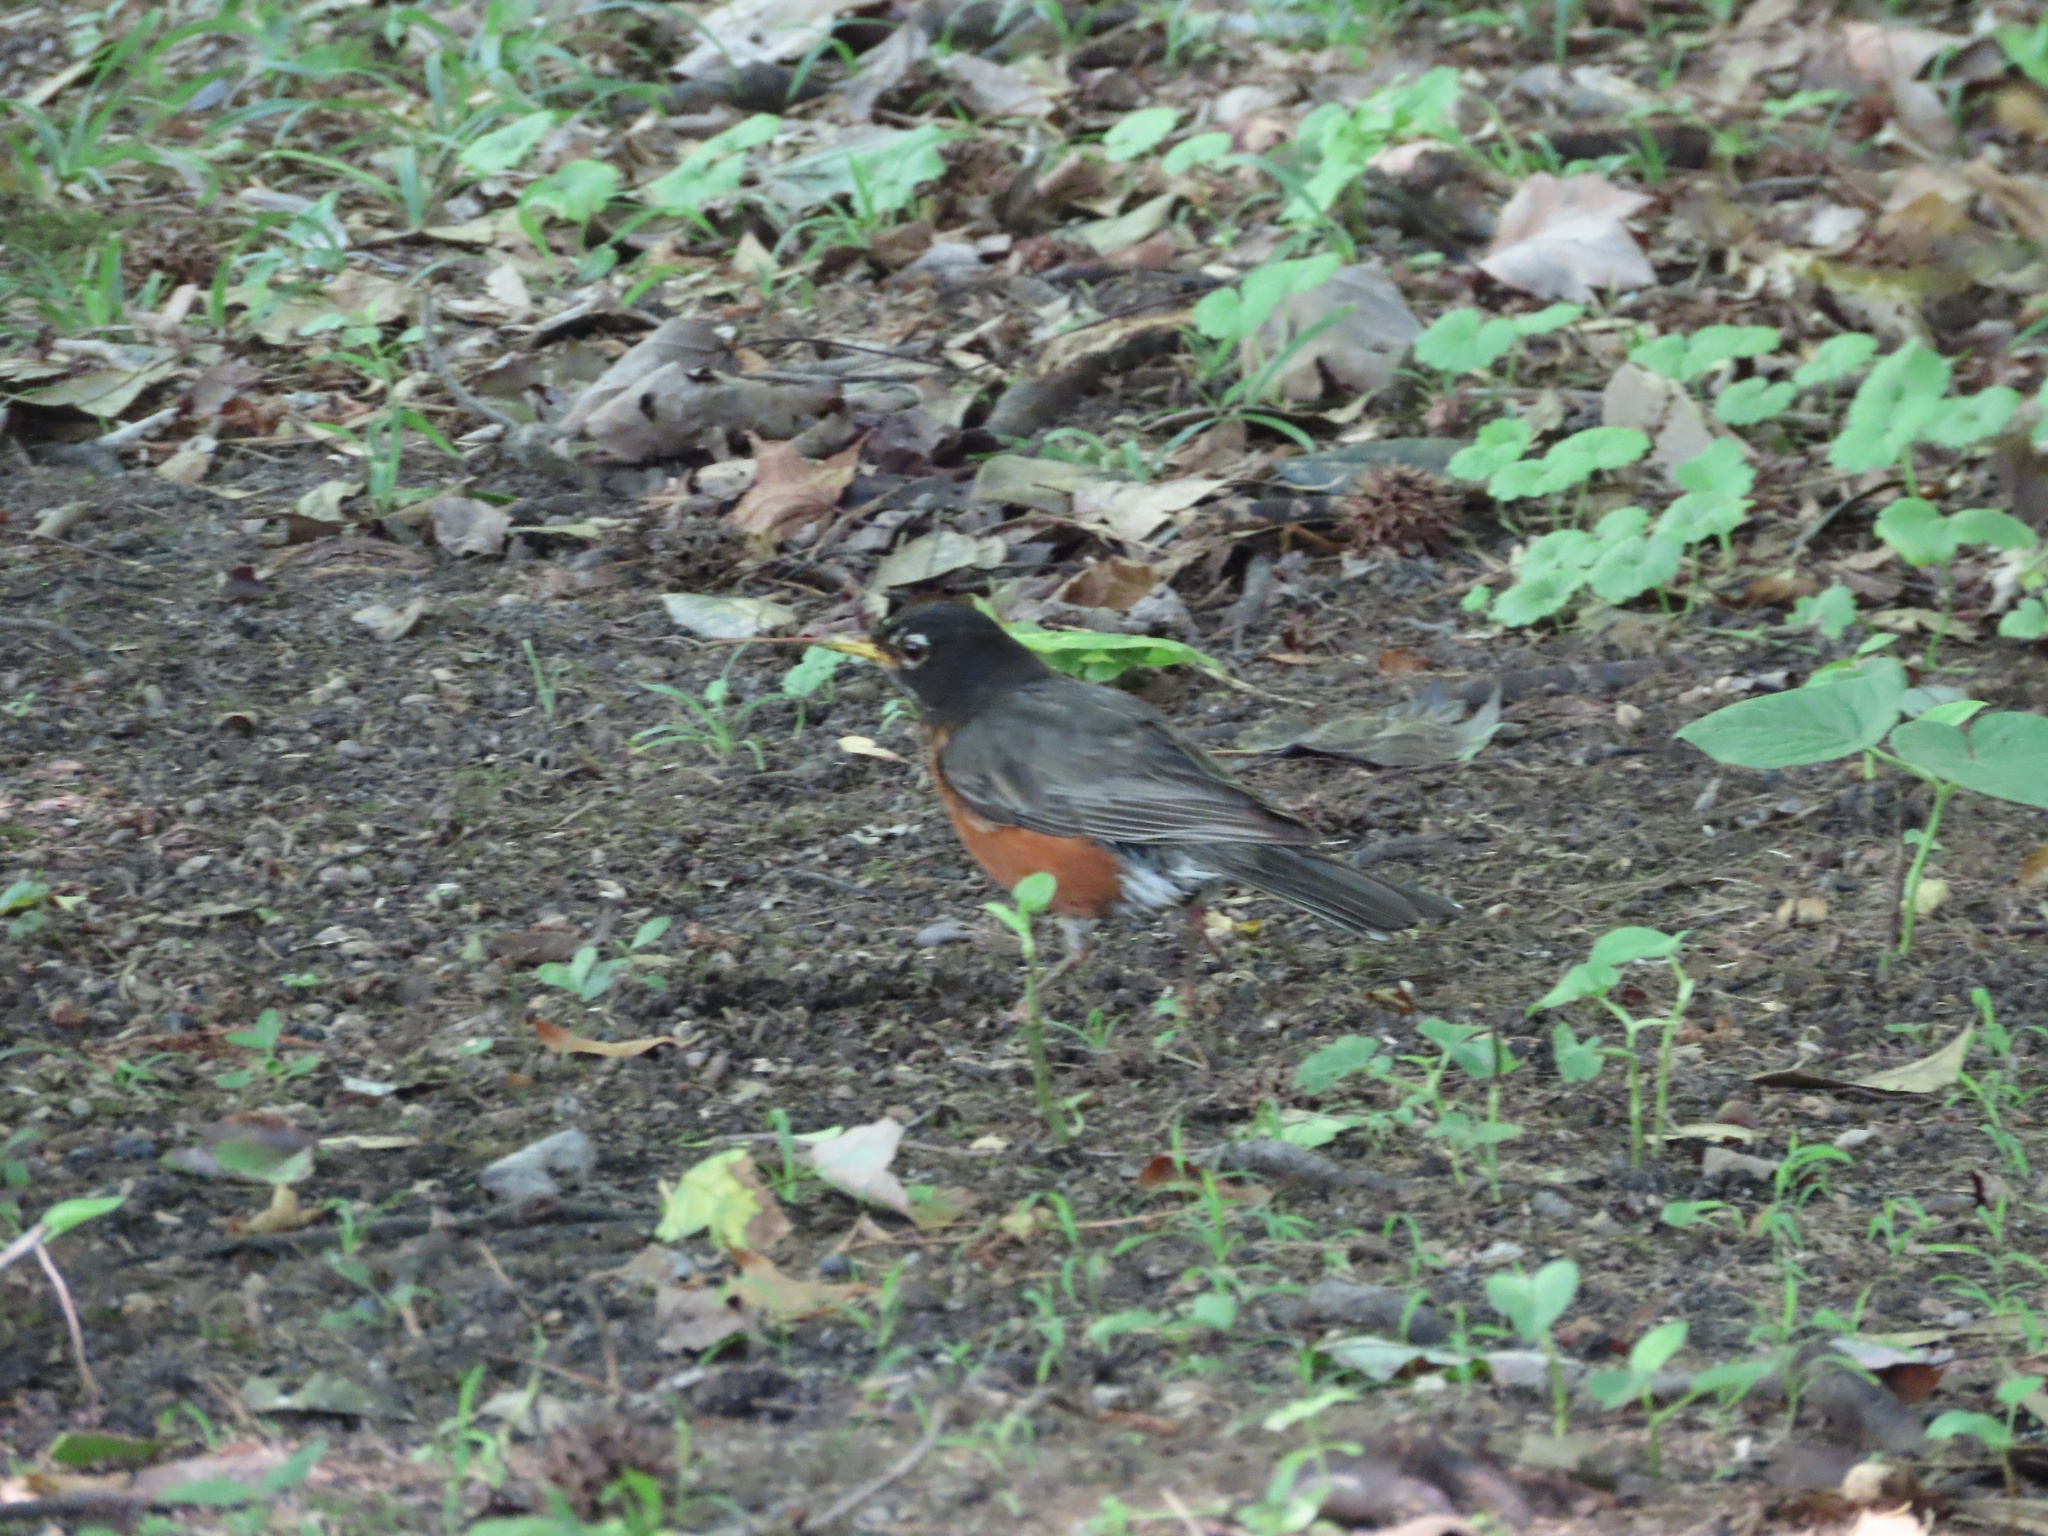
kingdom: Animalia
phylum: Chordata
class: Aves
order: Passeriformes
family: Turdidae
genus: Turdus
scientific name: Turdus migratorius
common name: American robin
